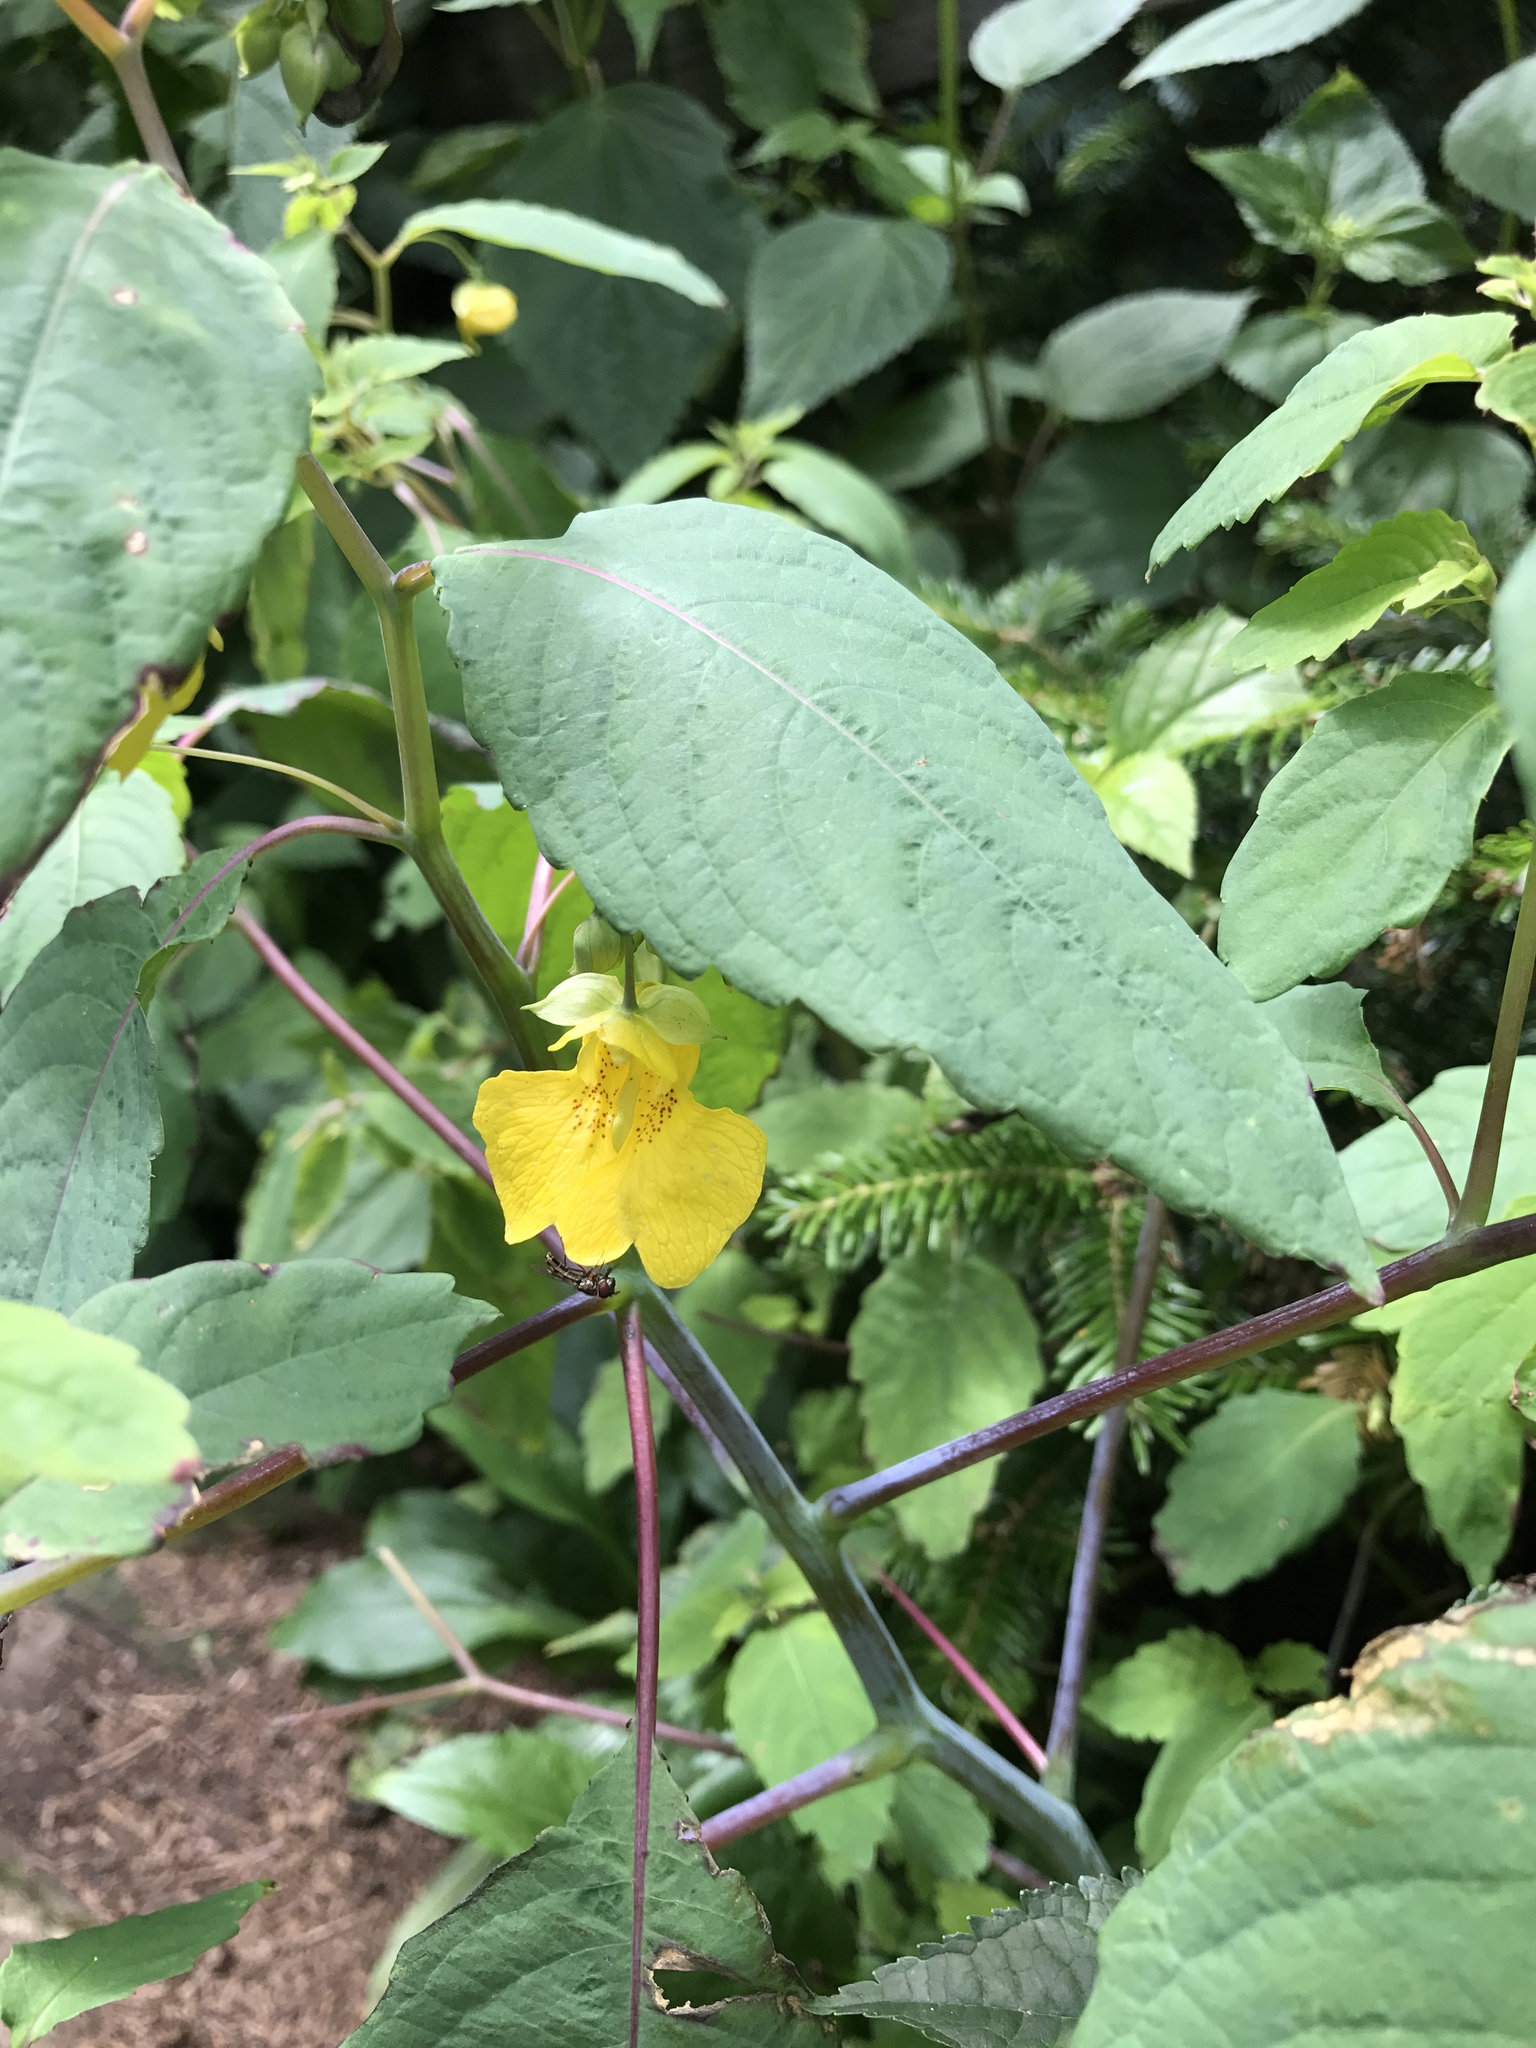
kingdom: Plantae
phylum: Tracheophyta
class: Magnoliopsida
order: Ericales
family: Balsaminaceae
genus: Impatiens
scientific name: Impatiens pallida
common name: Pale snapweed
